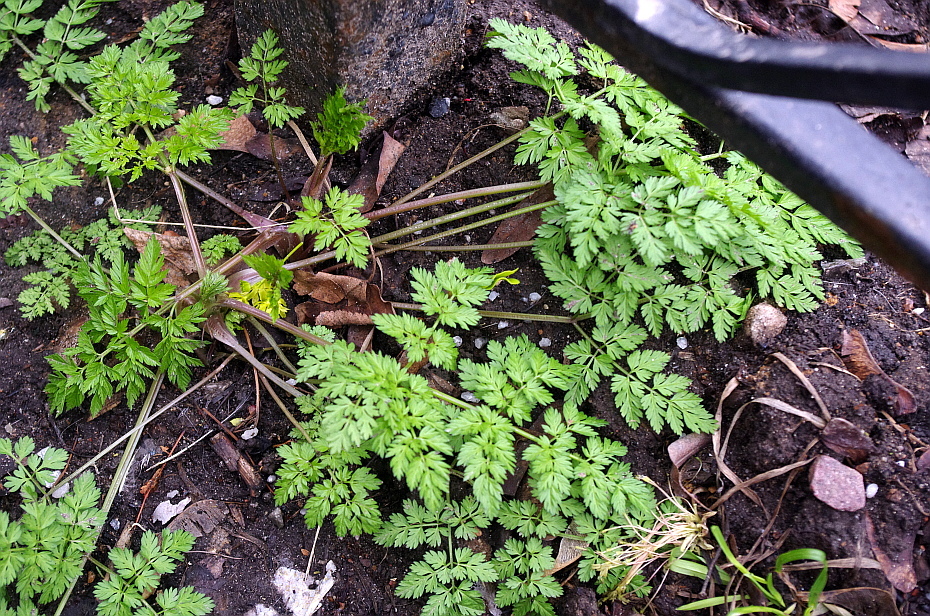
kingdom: Plantae
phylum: Tracheophyta
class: Magnoliopsida
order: Apiales
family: Apiaceae
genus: Anthriscus
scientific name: Anthriscus sylvestris
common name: Cow parsley
